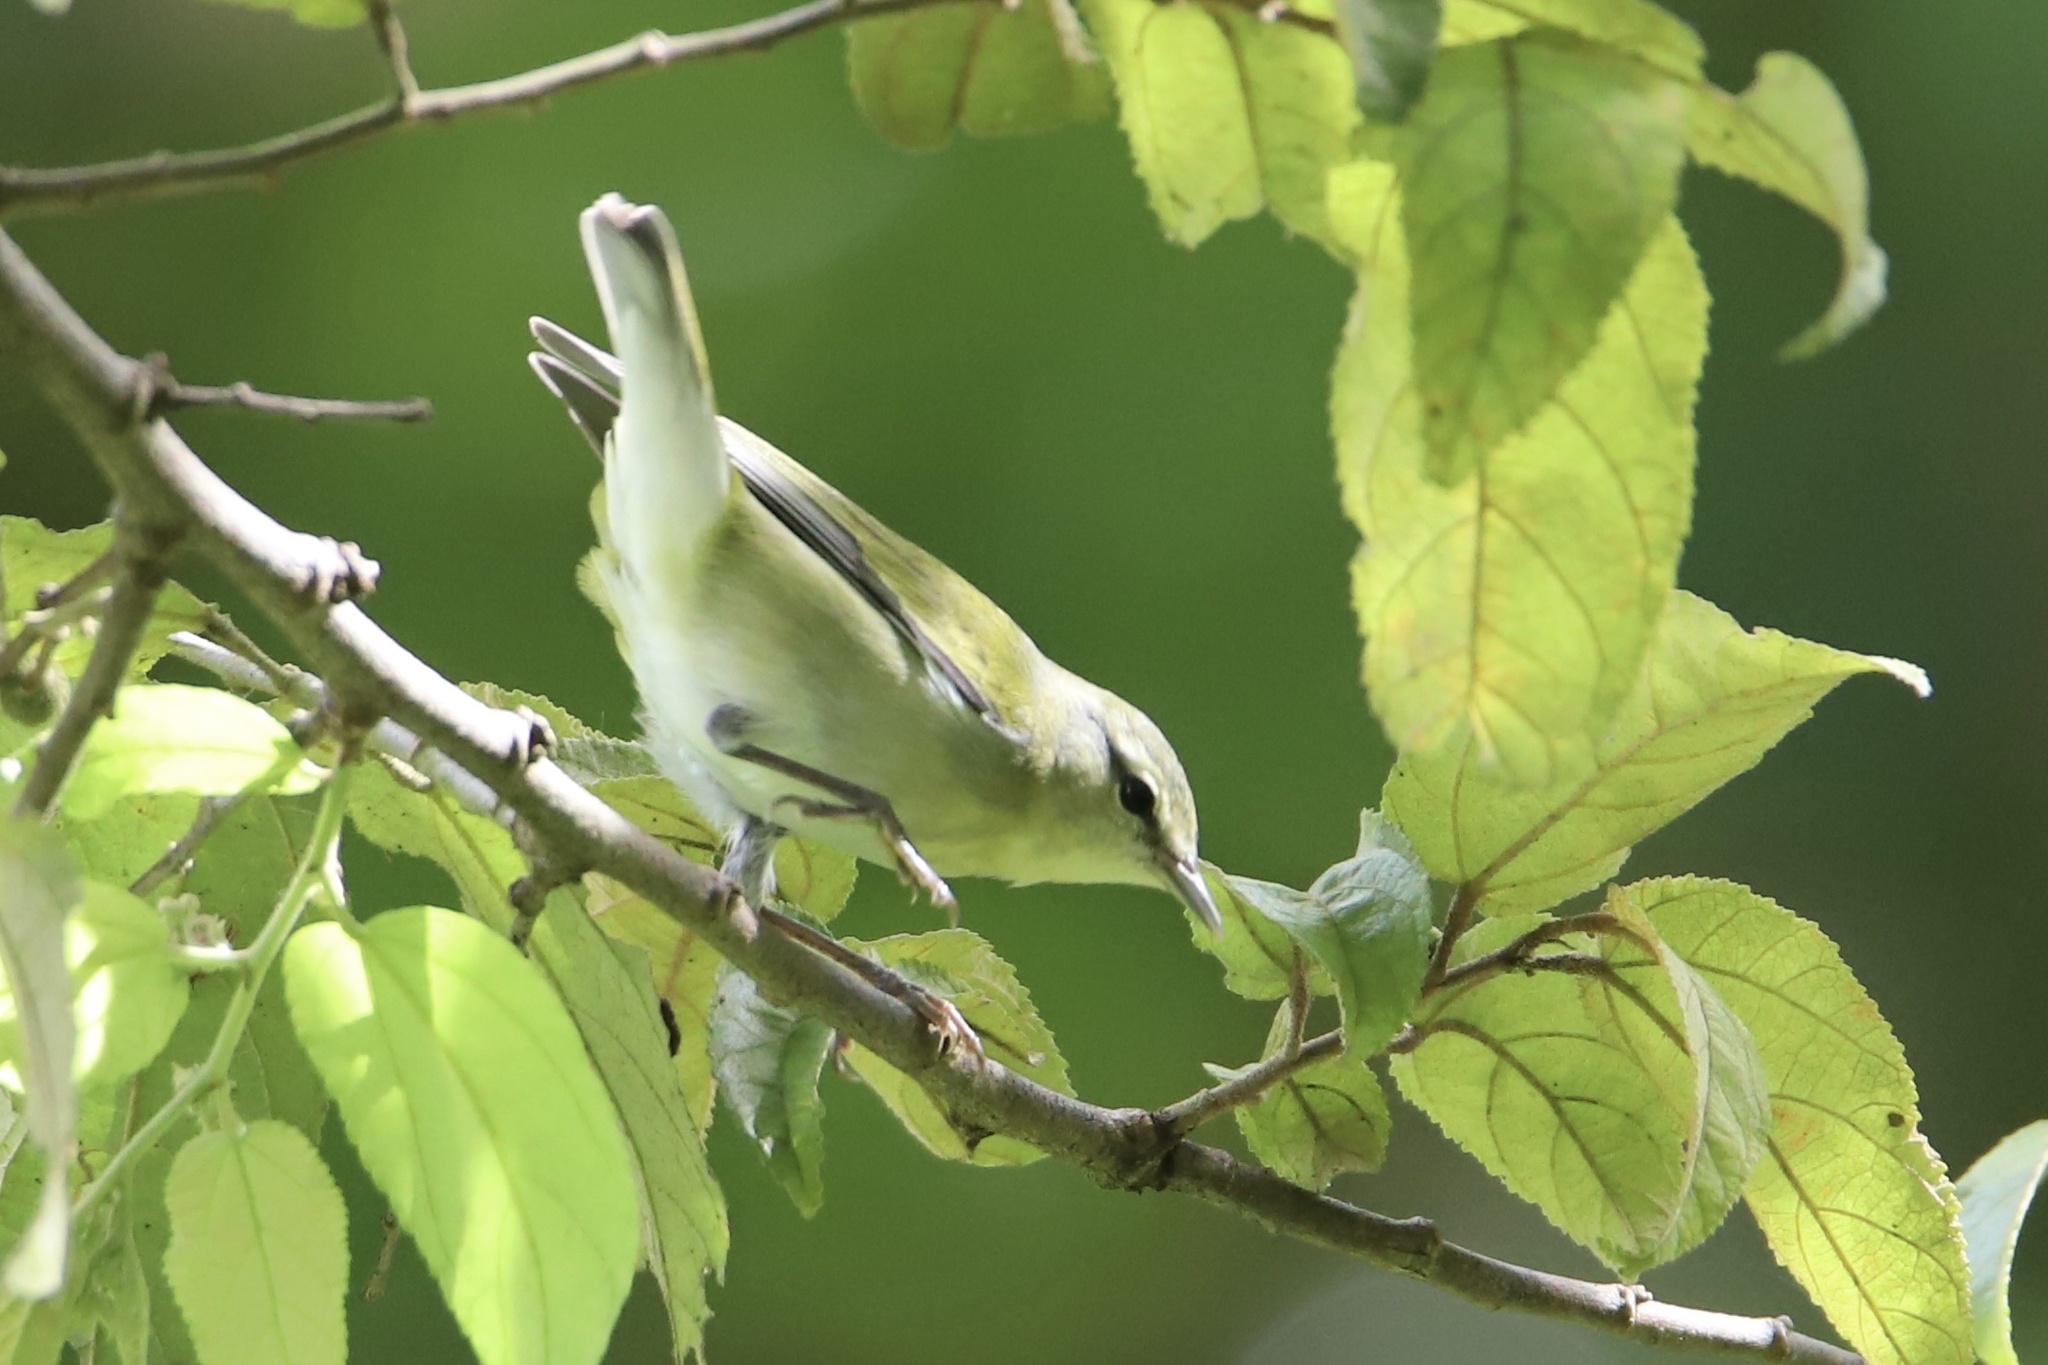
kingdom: Animalia
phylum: Chordata
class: Aves
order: Passeriformes
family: Parulidae
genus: Leiothlypis
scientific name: Leiothlypis peregrina
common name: Tennessee warbler
